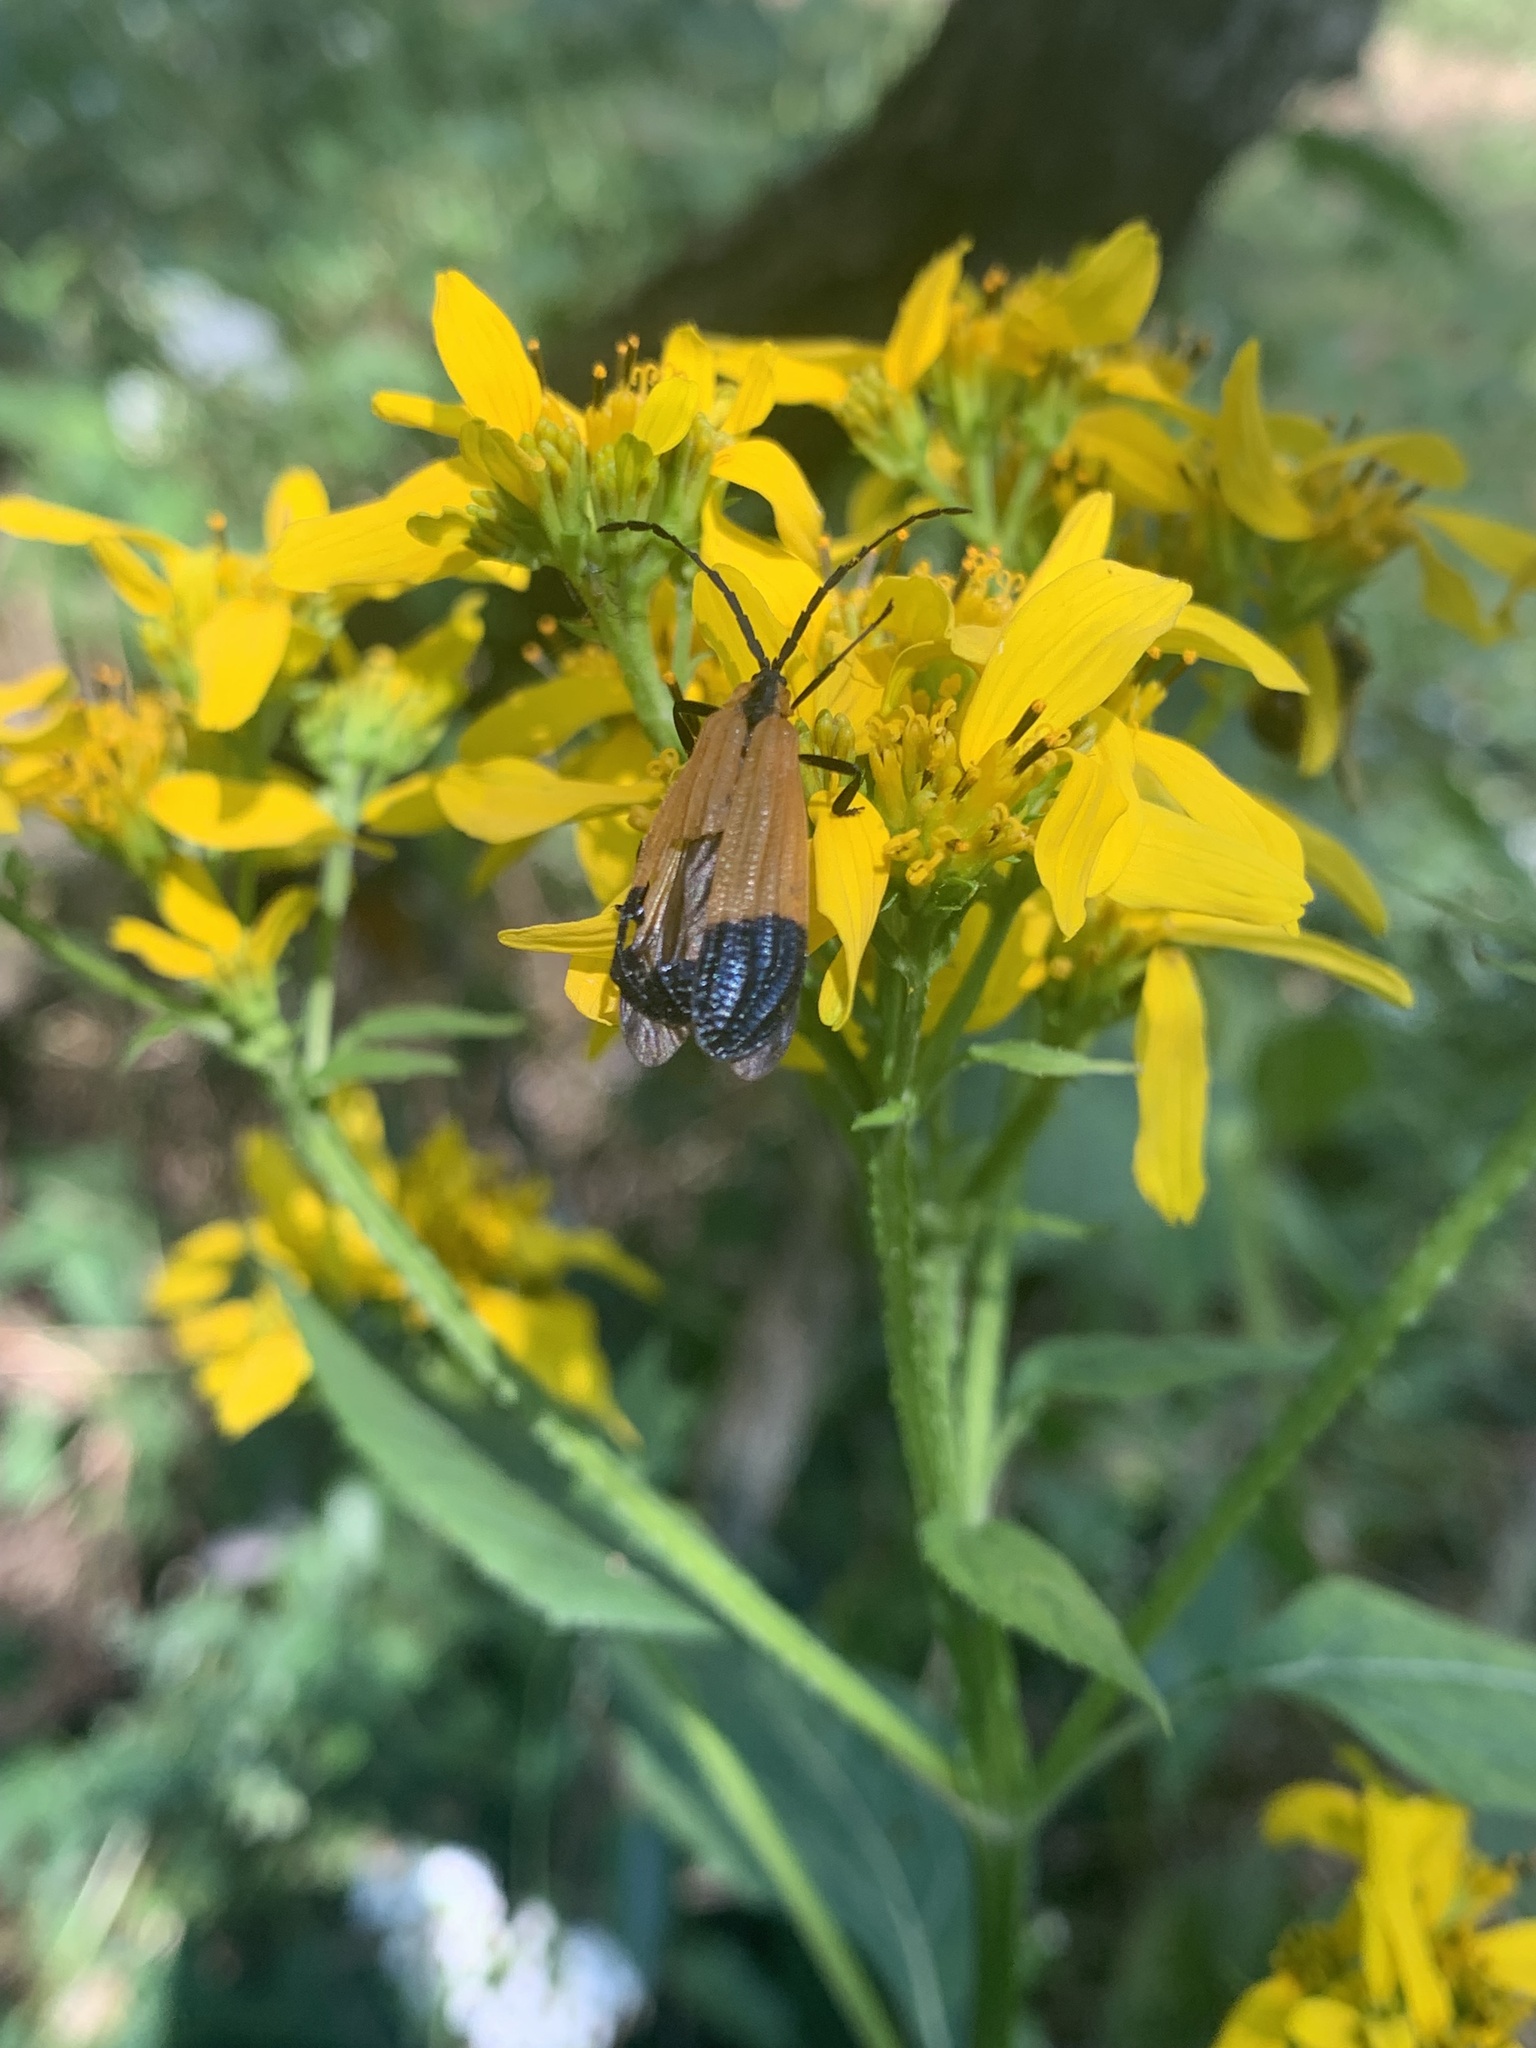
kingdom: Animalia
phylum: Arthropoda
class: Insecta
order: Coleoptera
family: Lycidae
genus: Calopteron
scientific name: Calopteron terminale
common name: End band net-winged beetle
